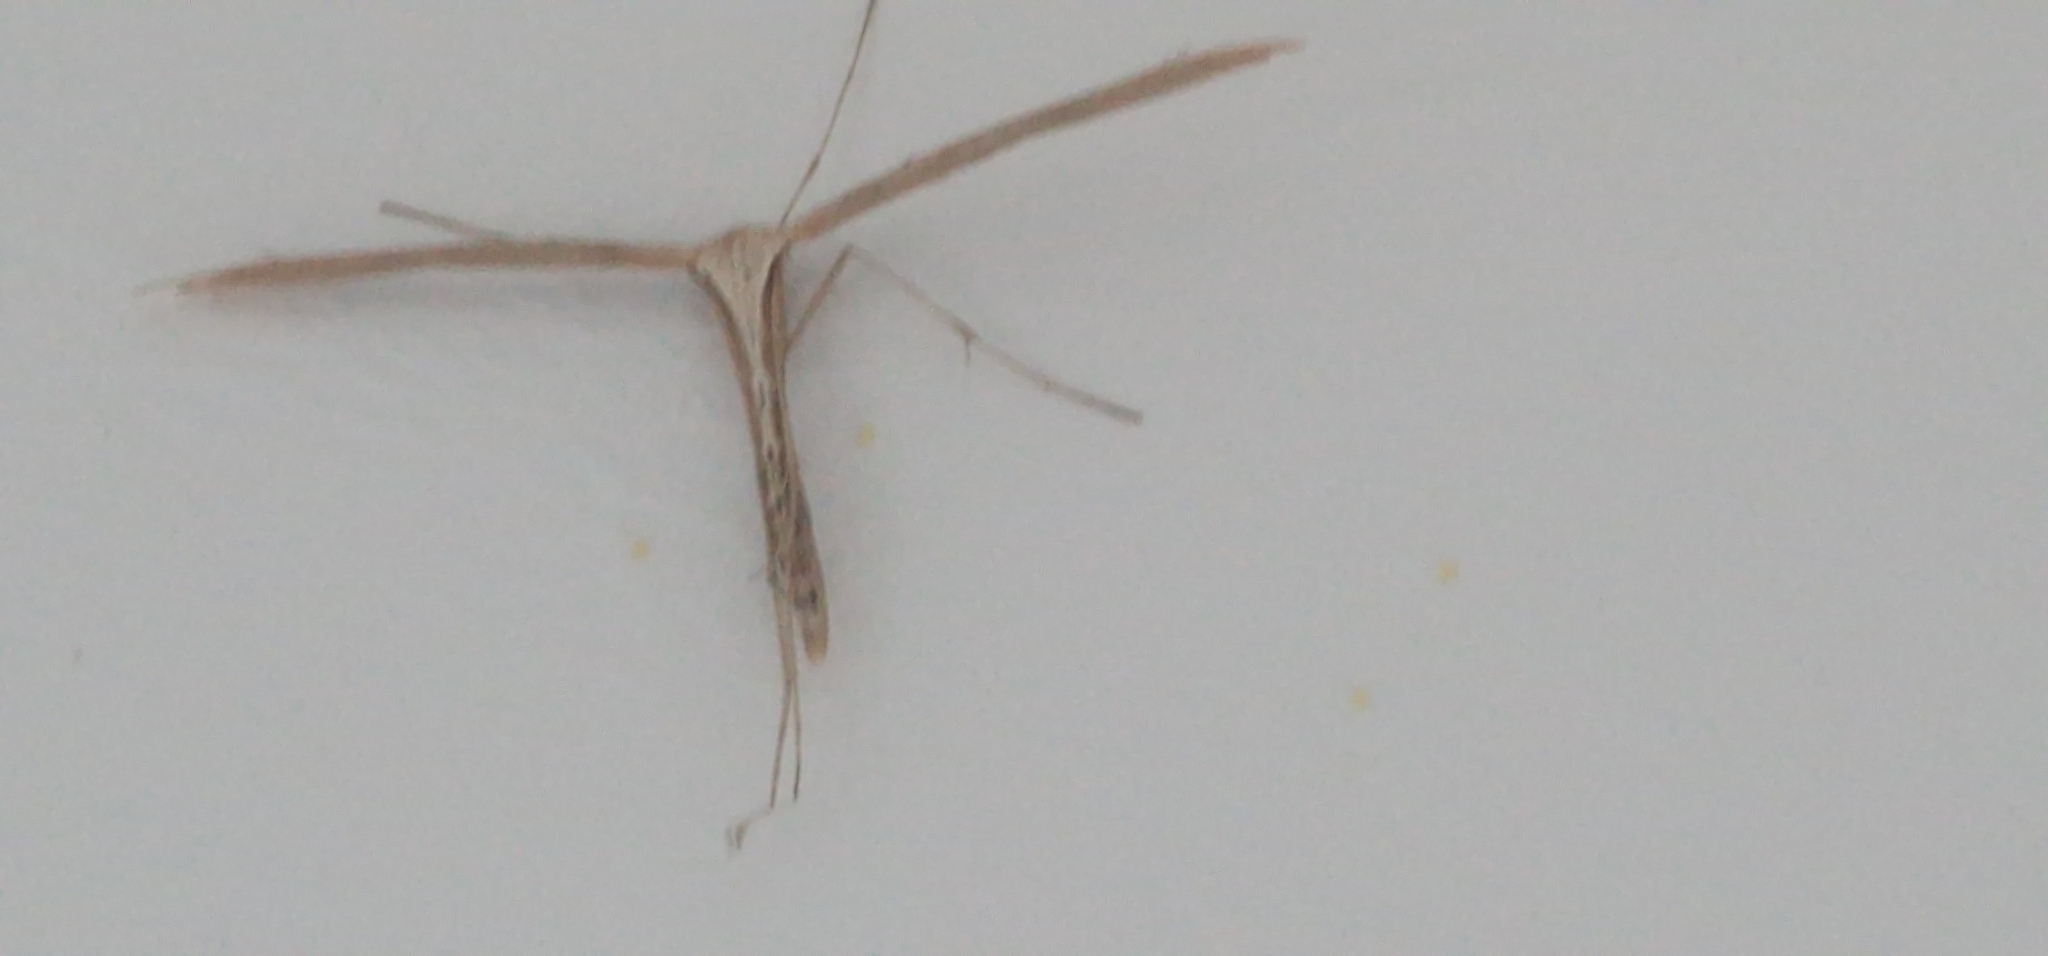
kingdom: Animalia
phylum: Arthropoda
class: Insecta
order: Lepidoptera
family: Pterophoridae
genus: Emmelina
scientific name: Emmelina monodactyla
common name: Common plume
